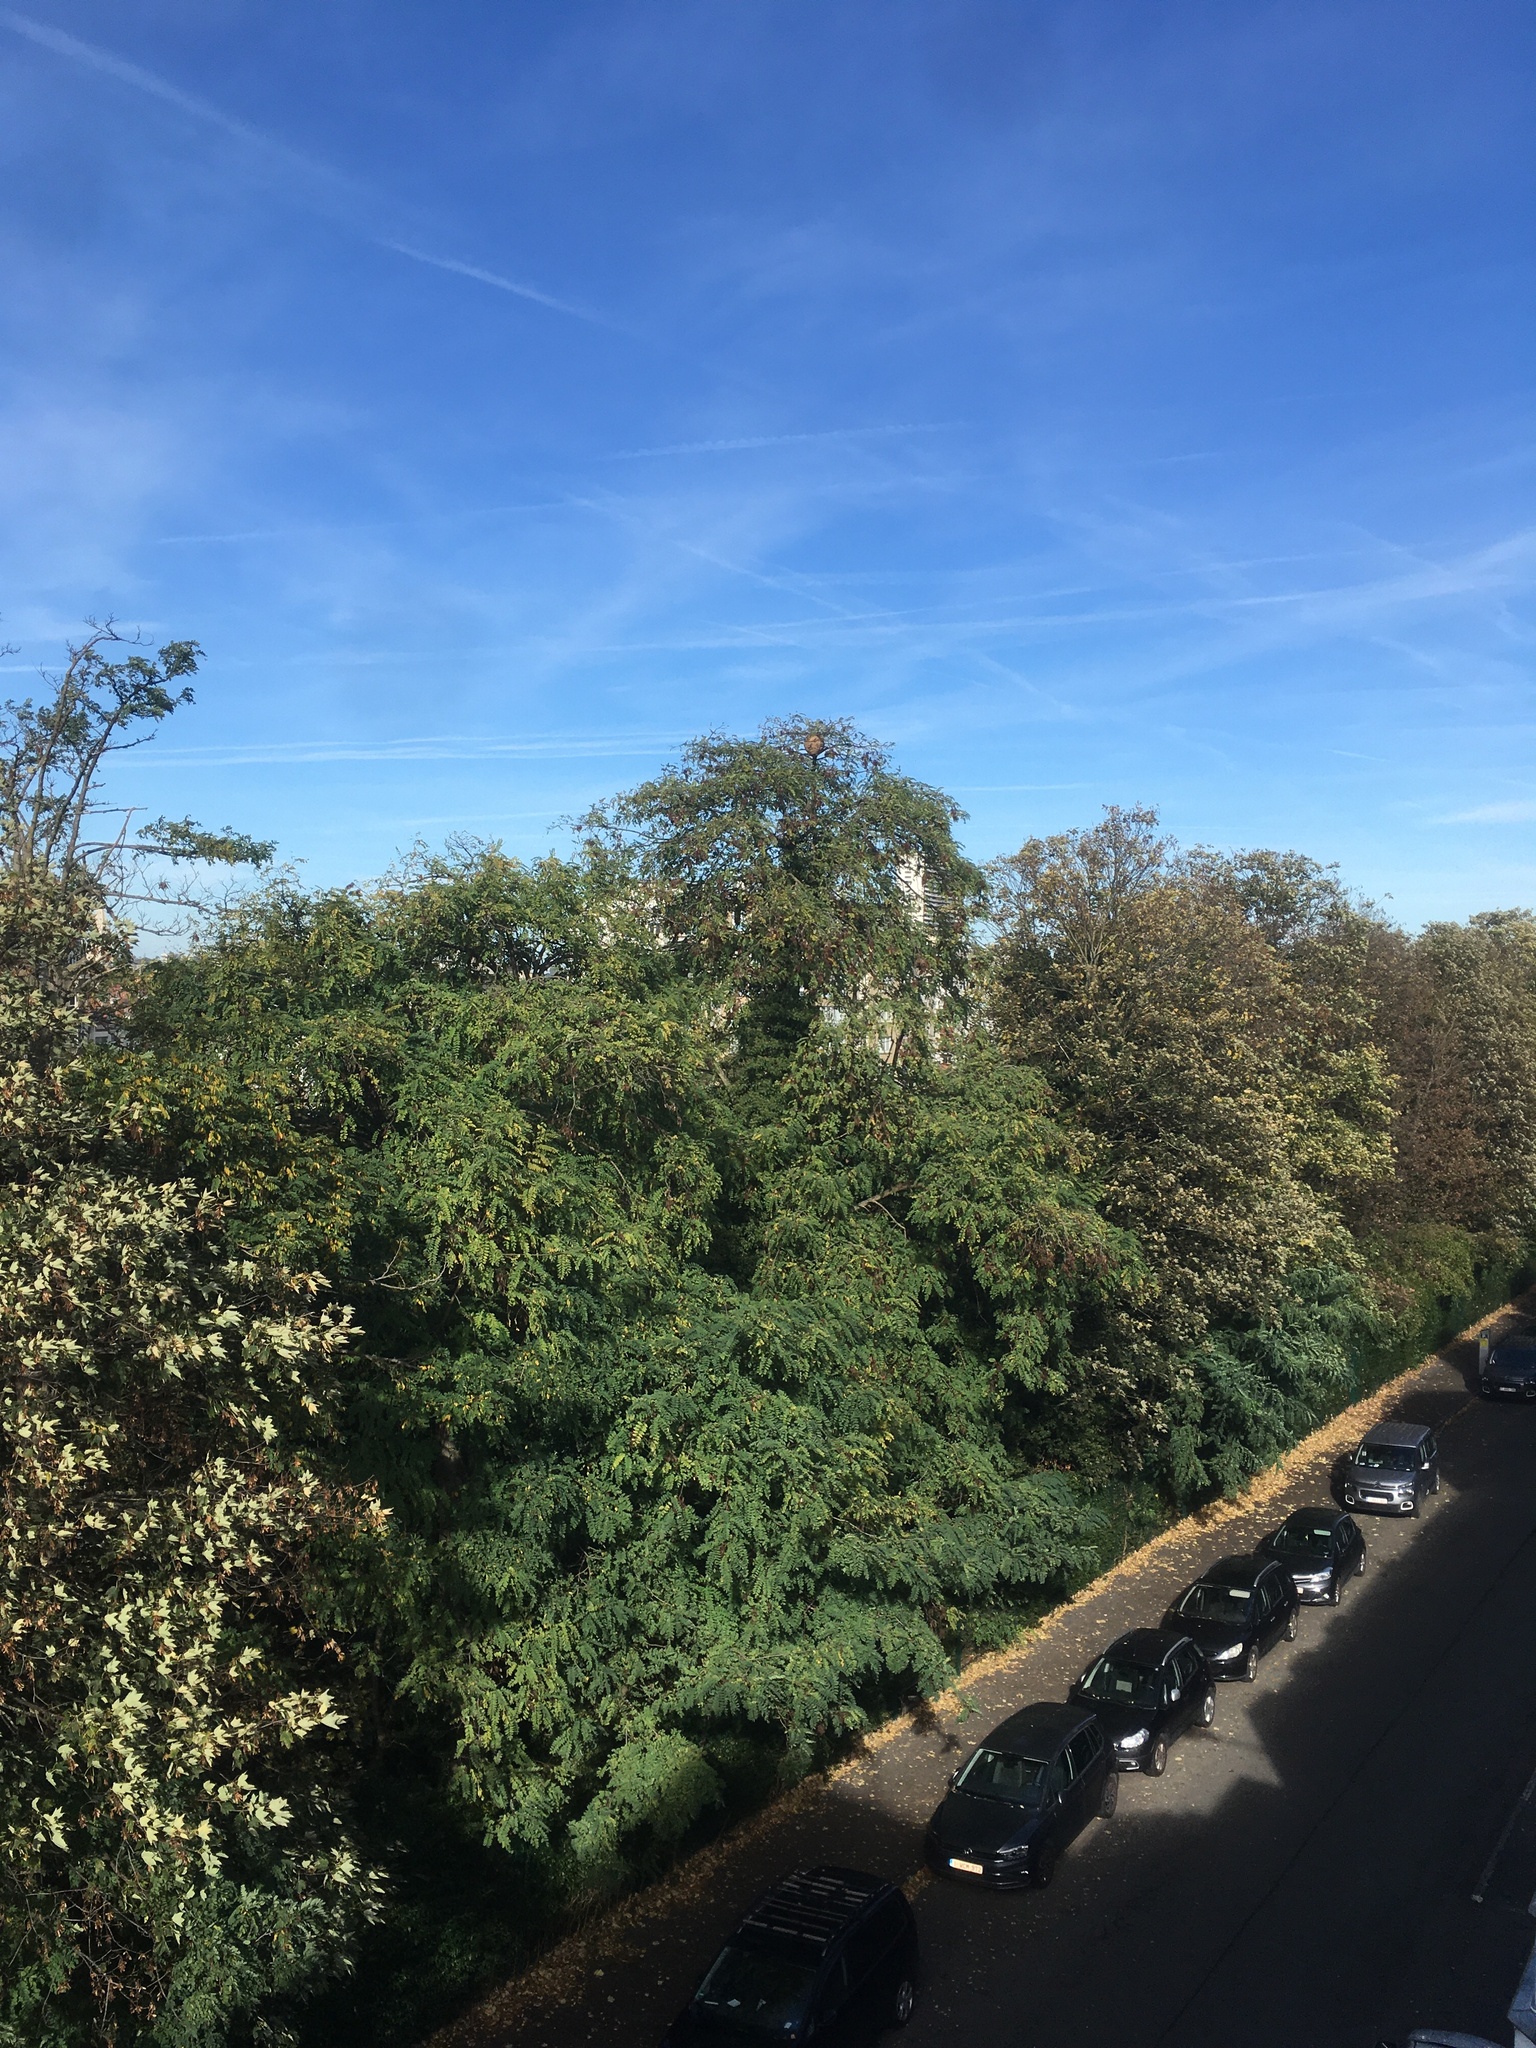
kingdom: Animalia
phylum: Arthropoda
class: Insecta
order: Hymenoptera
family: Vespidae
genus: Vespa
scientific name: Vespa velutina
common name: Asian hornet
